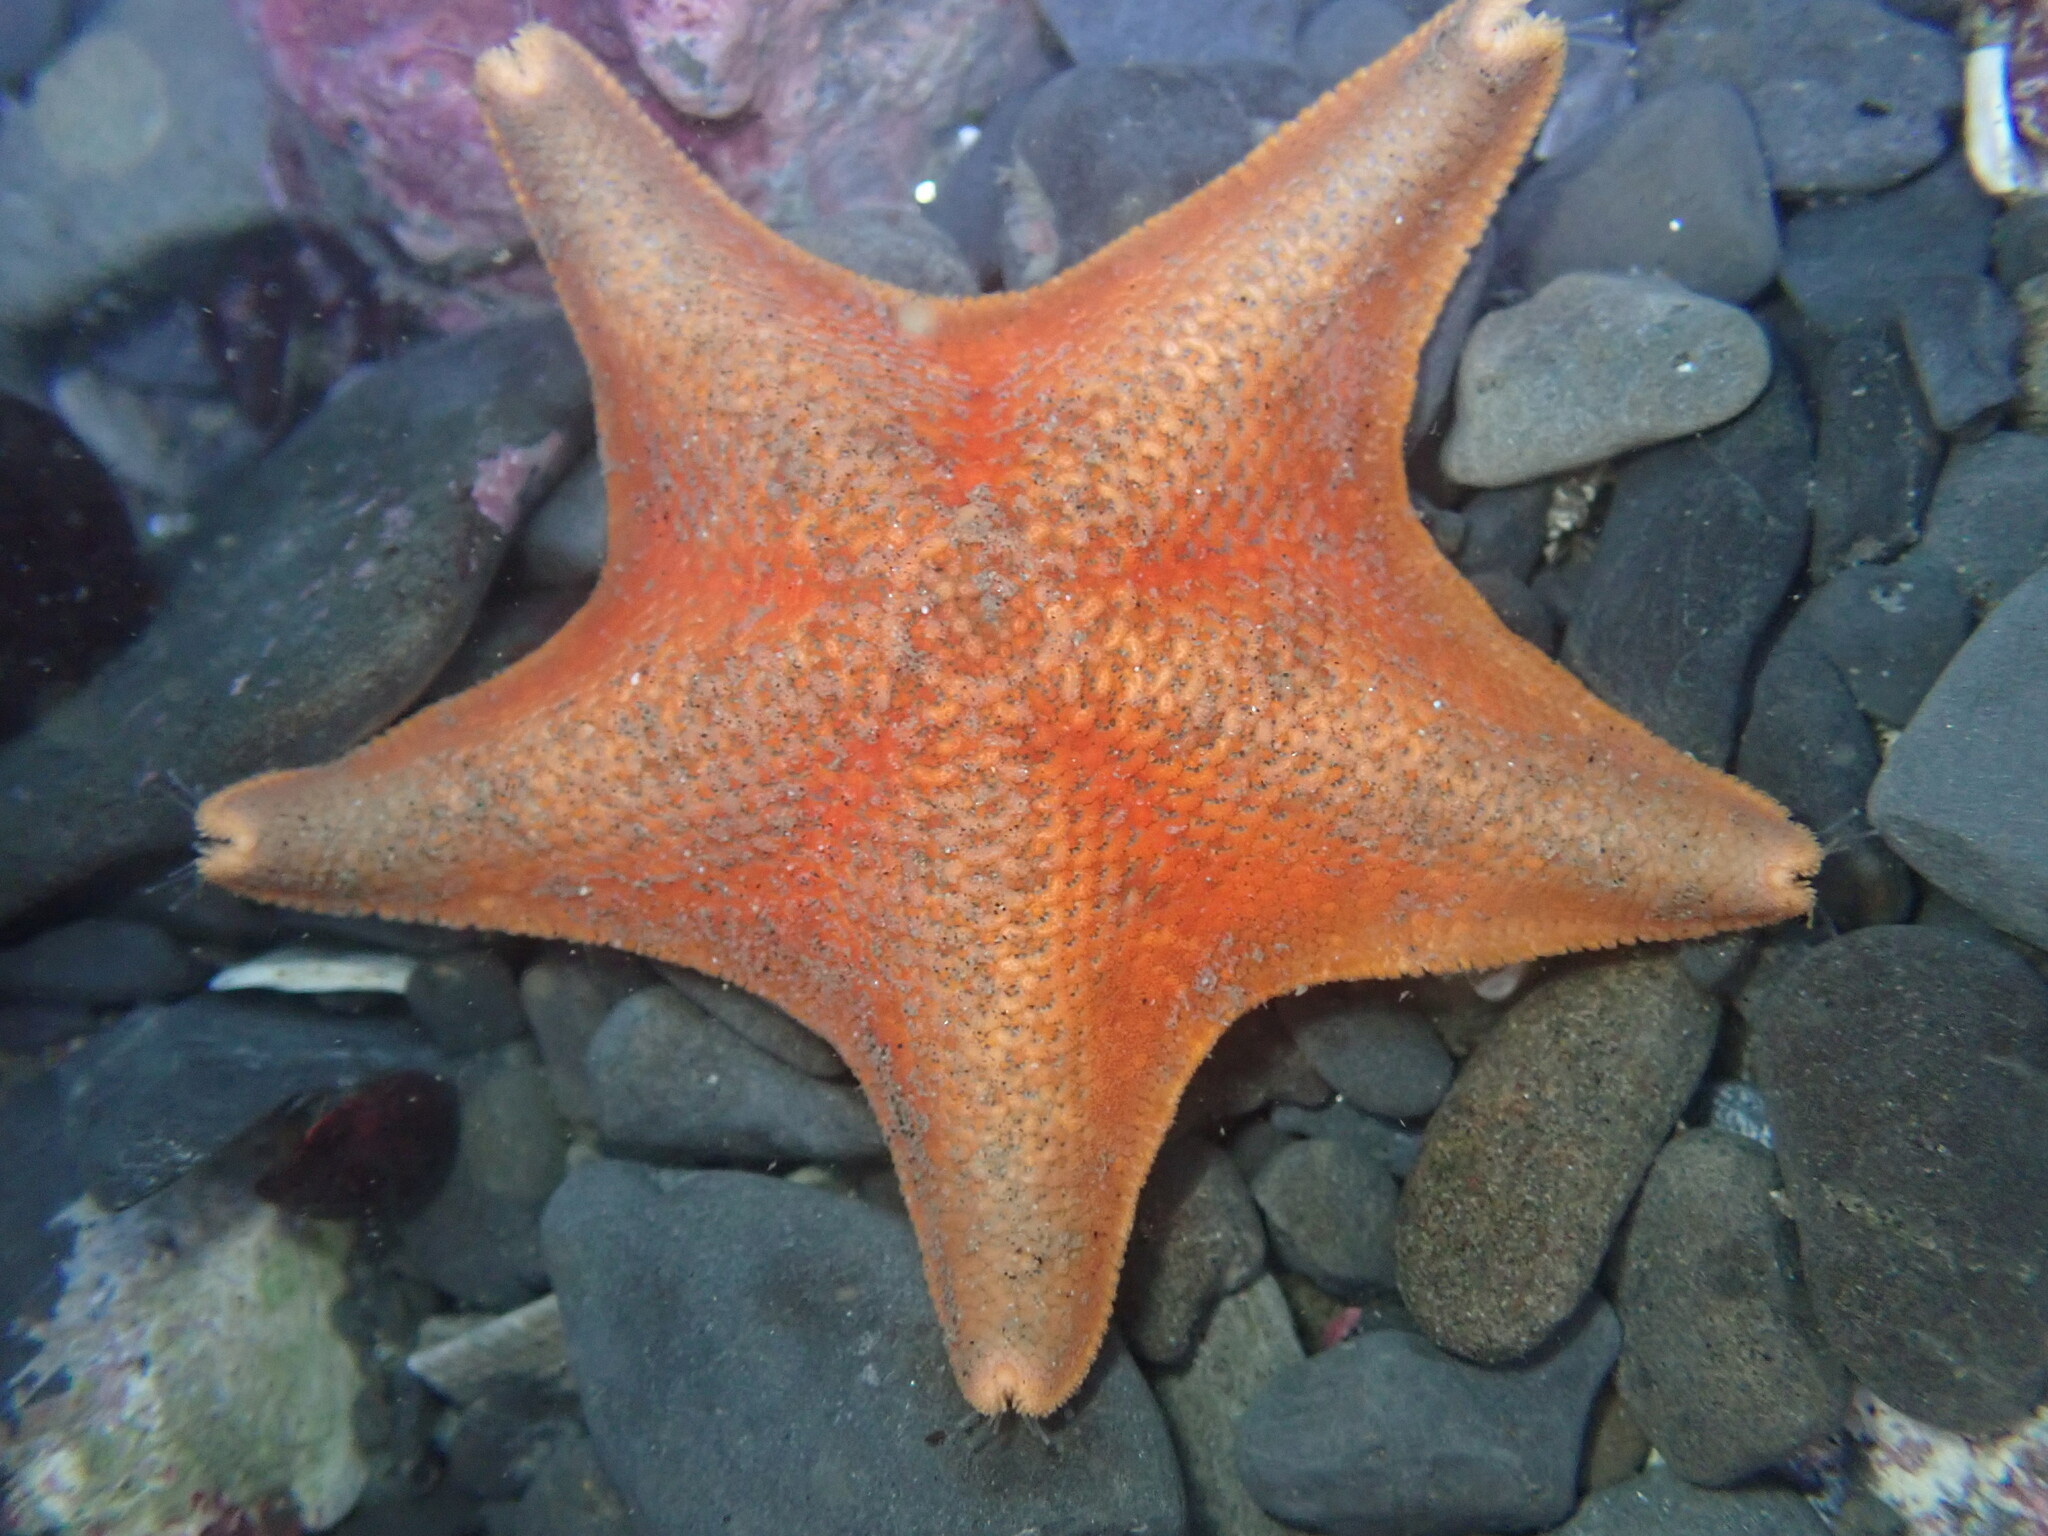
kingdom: Animalia
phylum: Echinodermata
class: Asteroidea
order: Valvatida
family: Asterinidae
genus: Patiria
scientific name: Patiria miniata
